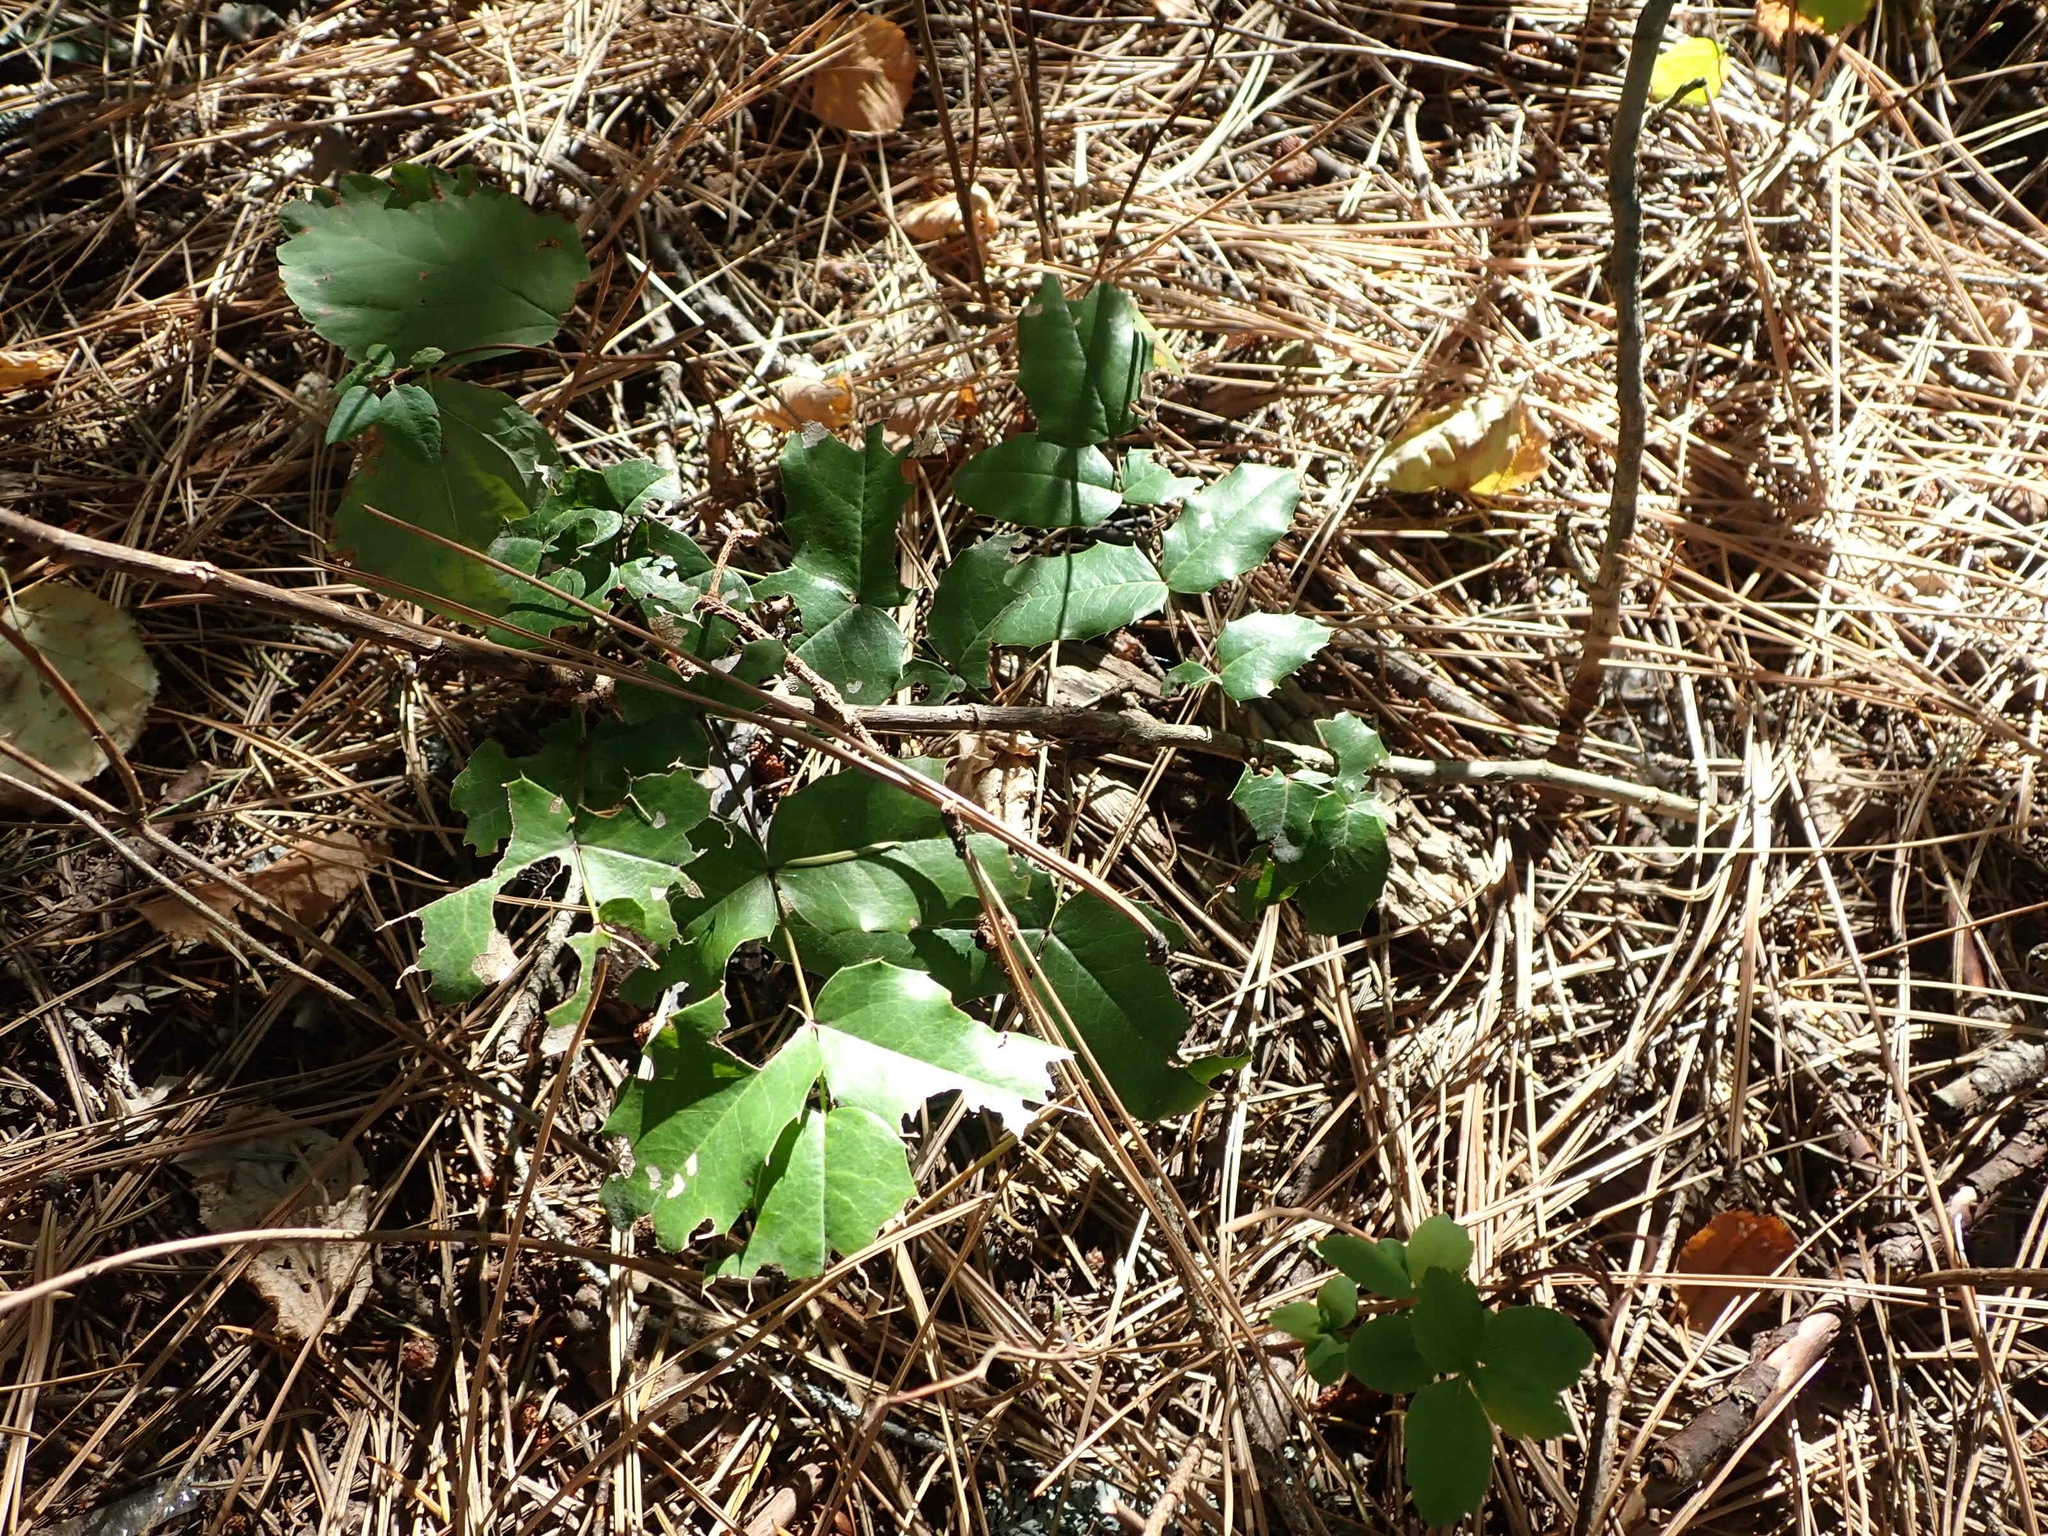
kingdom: Plantae
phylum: Tracheophyta
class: Magnoliopsida
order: Ranunculales
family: Berberidaceae
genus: Mahonia
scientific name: Mahonia repens
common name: Creeping oregon-grape
